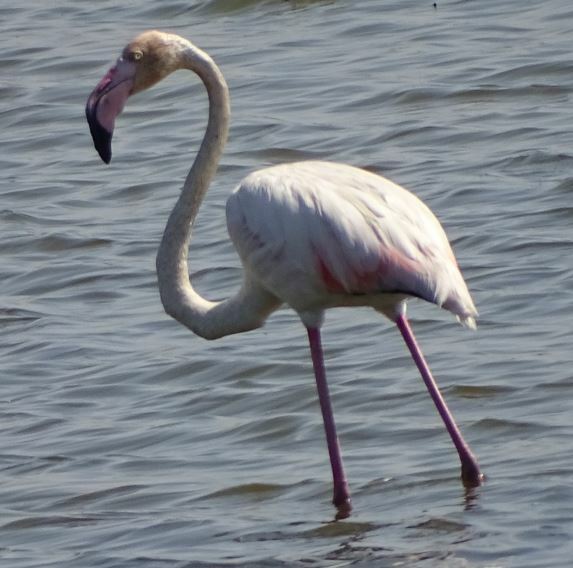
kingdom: Animalia
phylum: Chordata
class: Aves
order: Phoenicopteriformes
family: Phoenicopteridae
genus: Phoenicopterus
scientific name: Phoenicopterus roseus
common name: Greater flamingo
